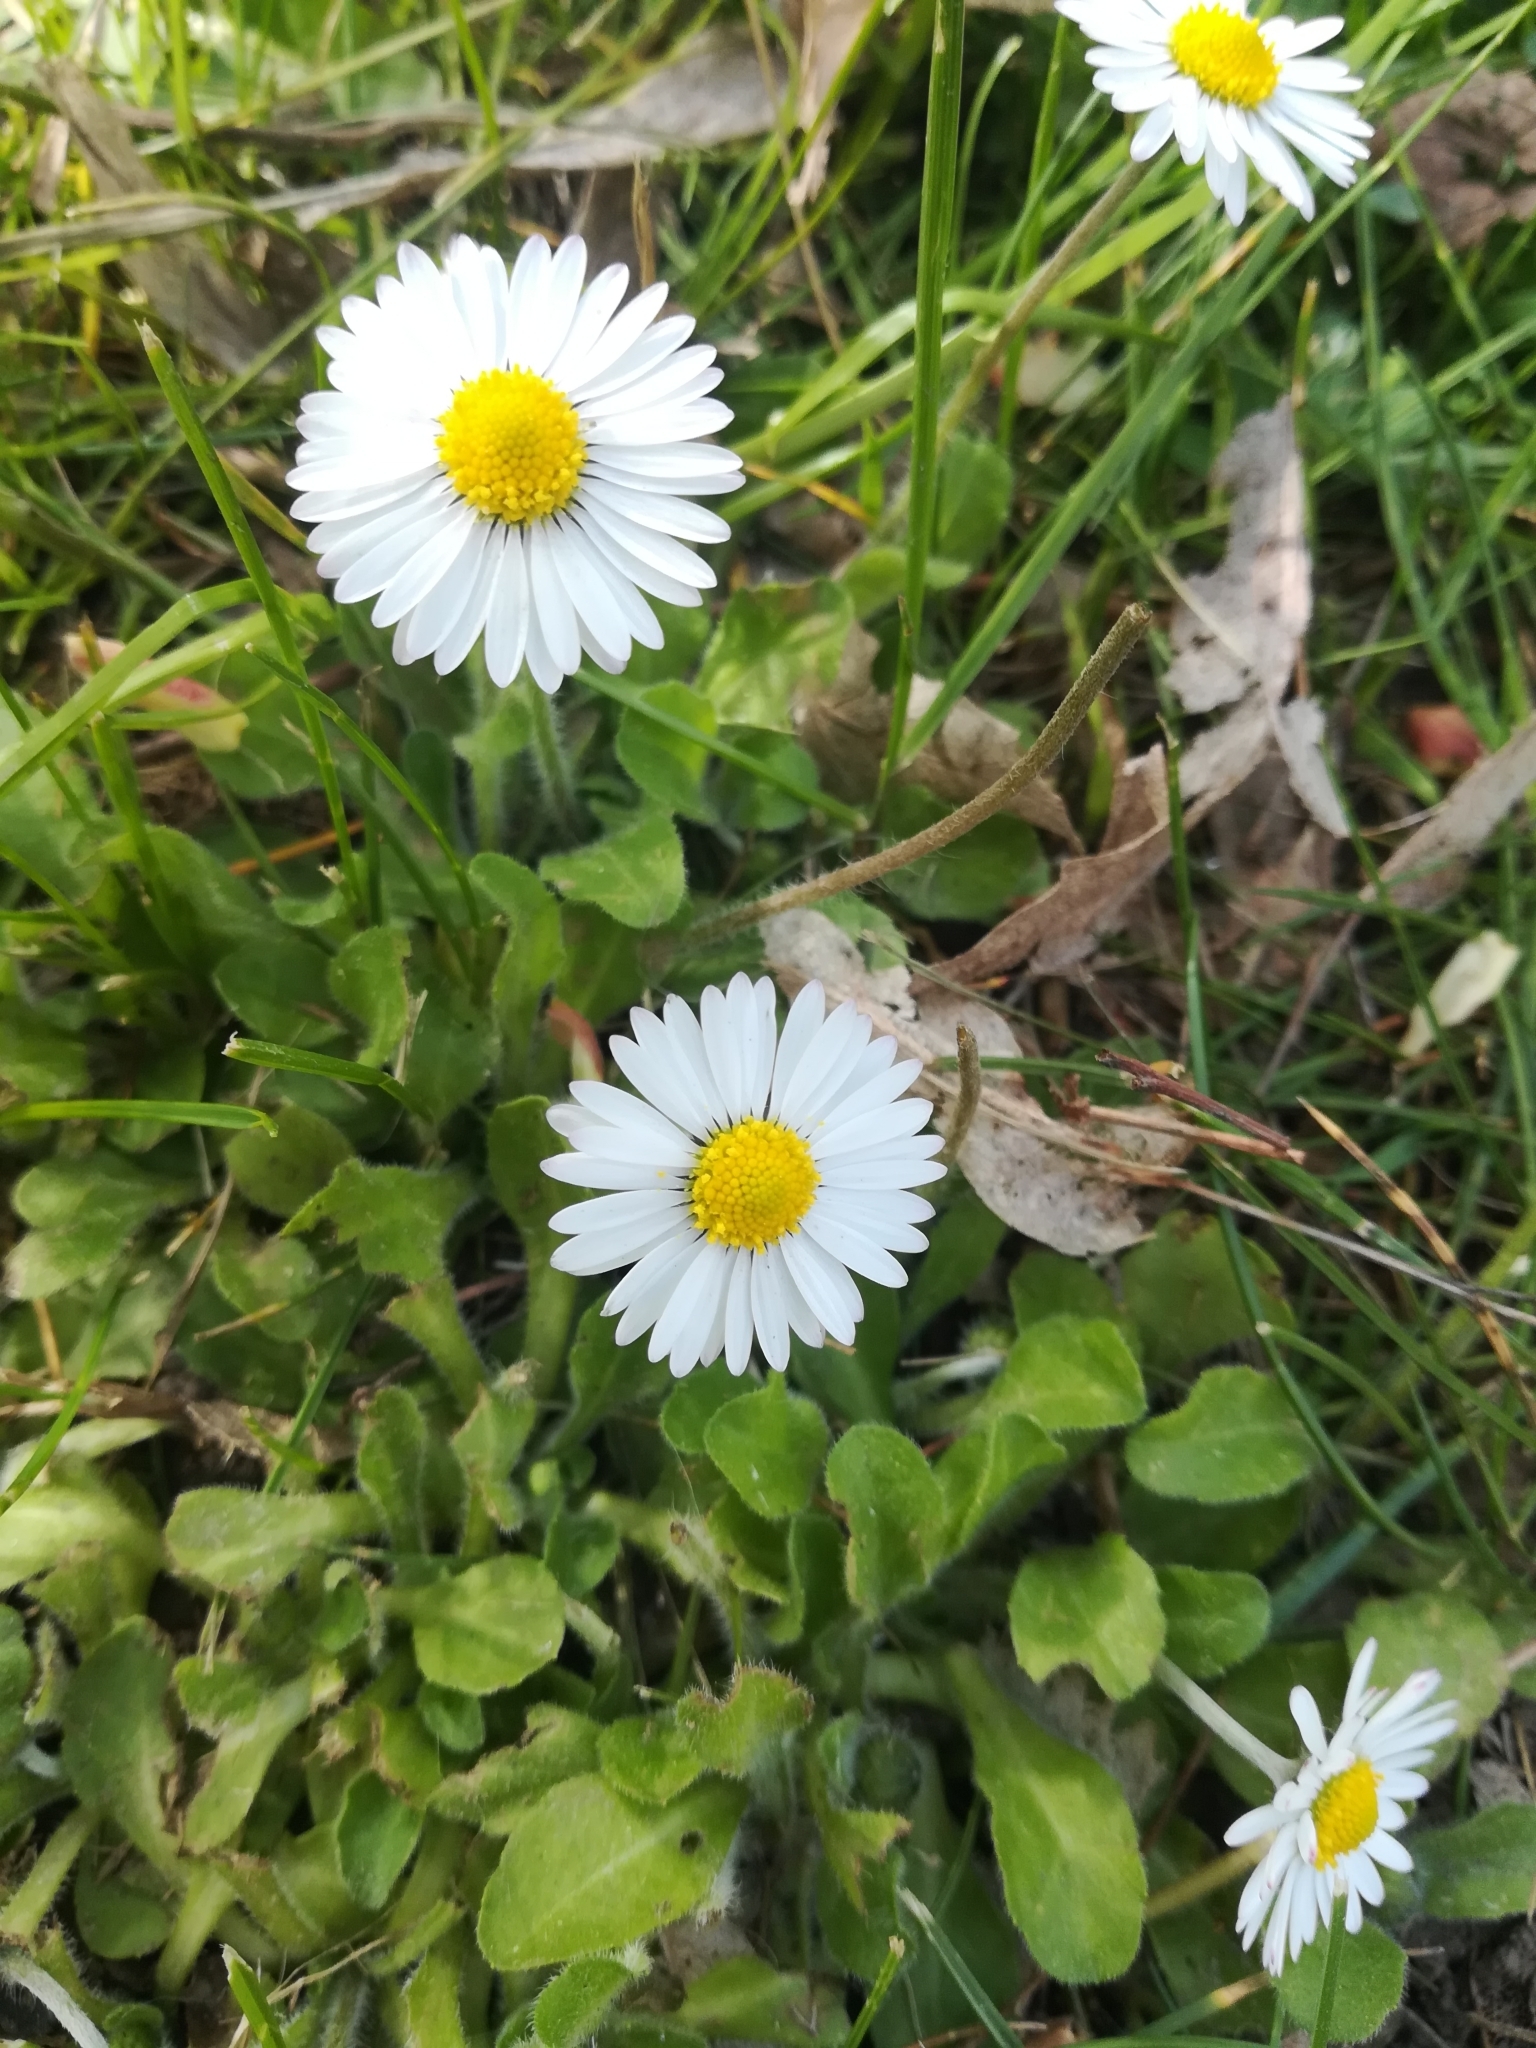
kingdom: Plantae
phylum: Tracheophyta
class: Magnoliopsida
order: Asterales
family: Asteraceae
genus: Bellis
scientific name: Bellis perennis
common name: Lawndaisy
